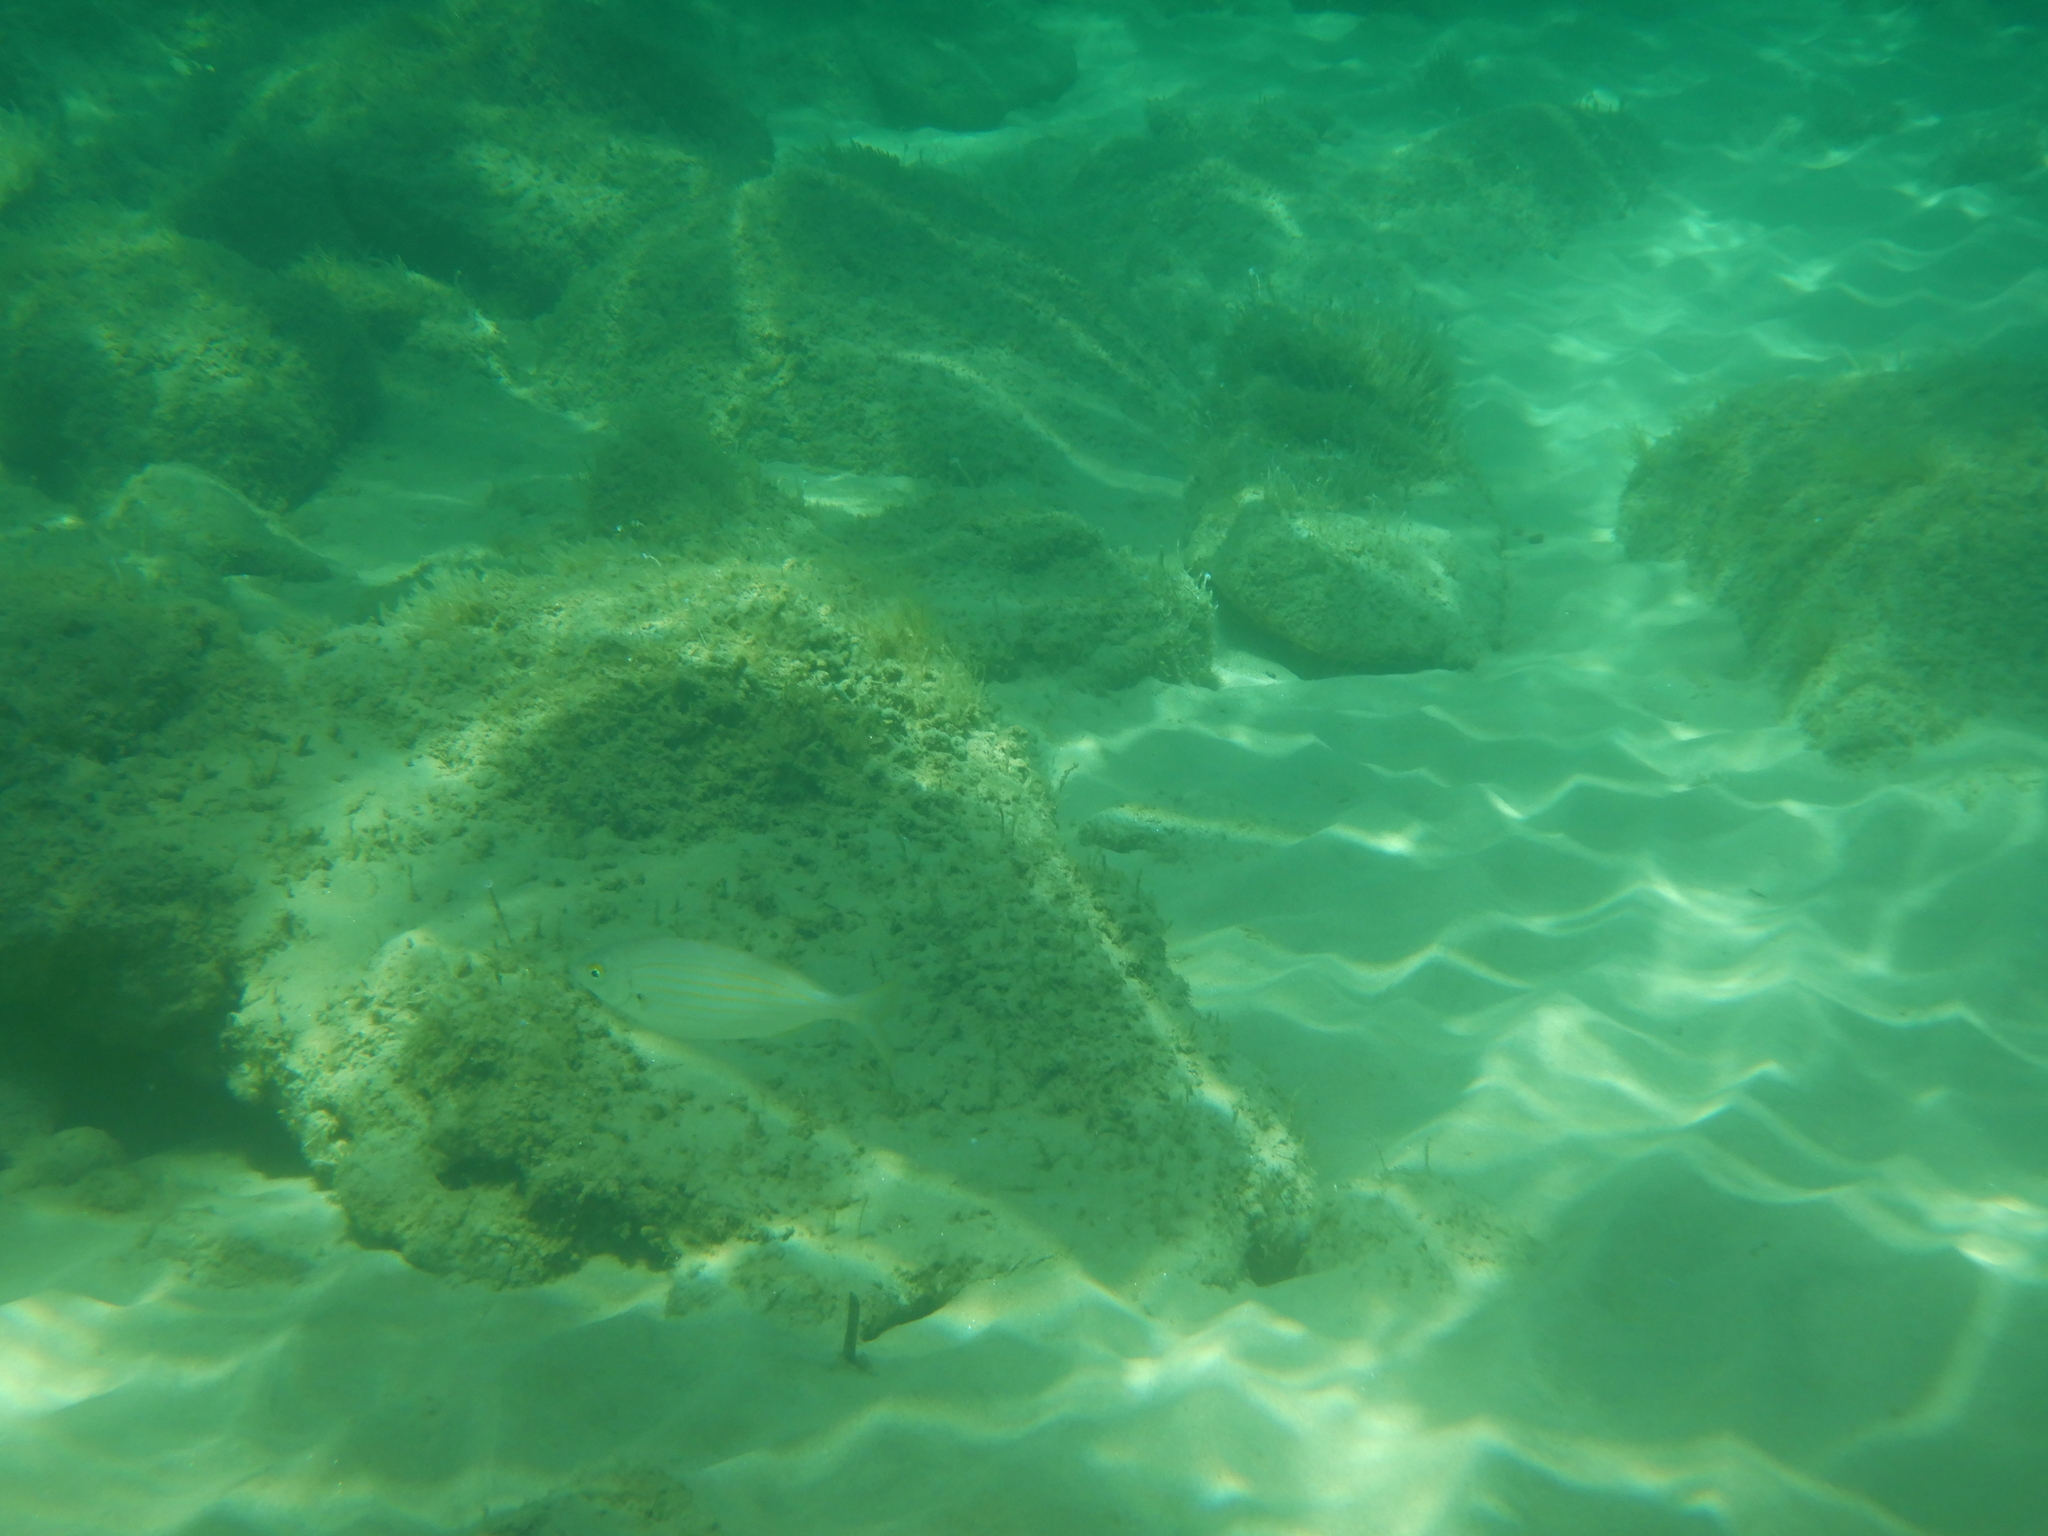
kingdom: Animalia
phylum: Chordata
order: Perciformes
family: Sparidae
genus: Sarpa
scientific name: Sarpa salpa
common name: Salema
